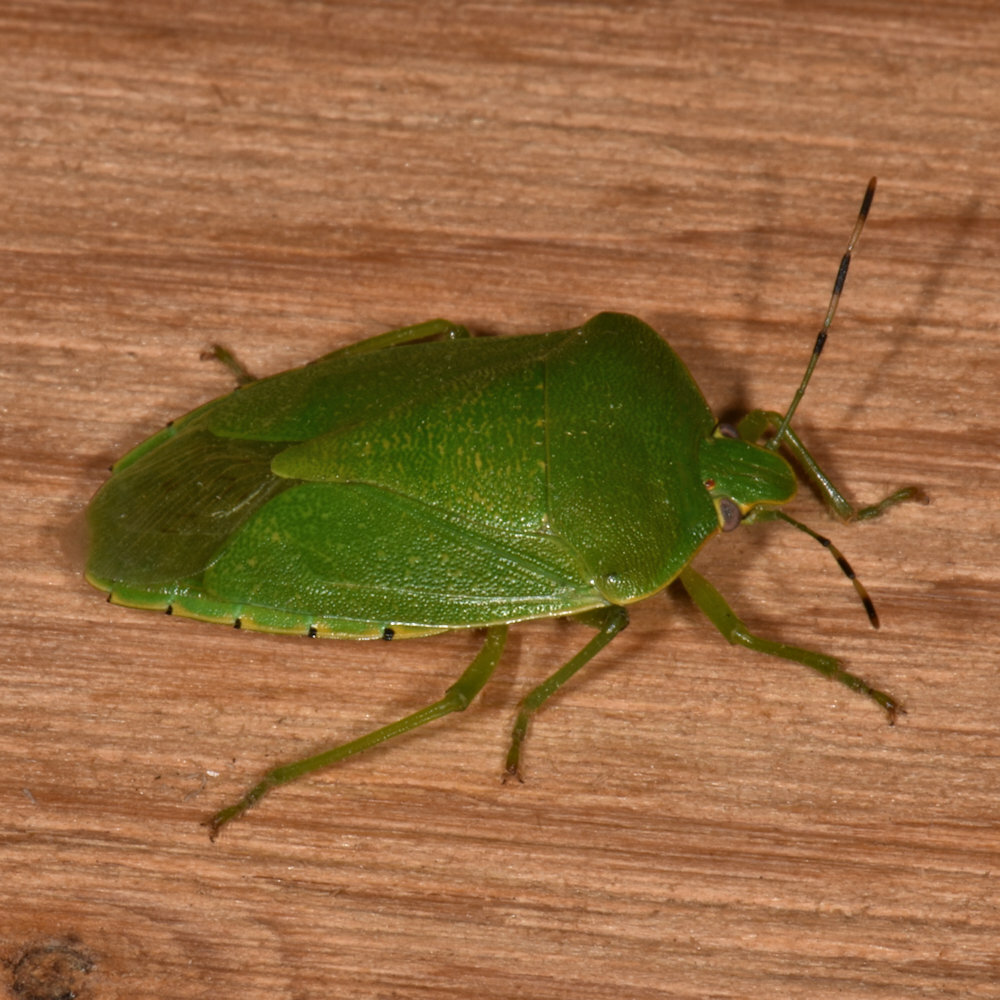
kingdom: Animalia
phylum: Arthropoda
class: Insecta
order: Hemiptera
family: Pentatomidae
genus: Chinavia
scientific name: Chinavia hilaris
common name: Green stink bug
